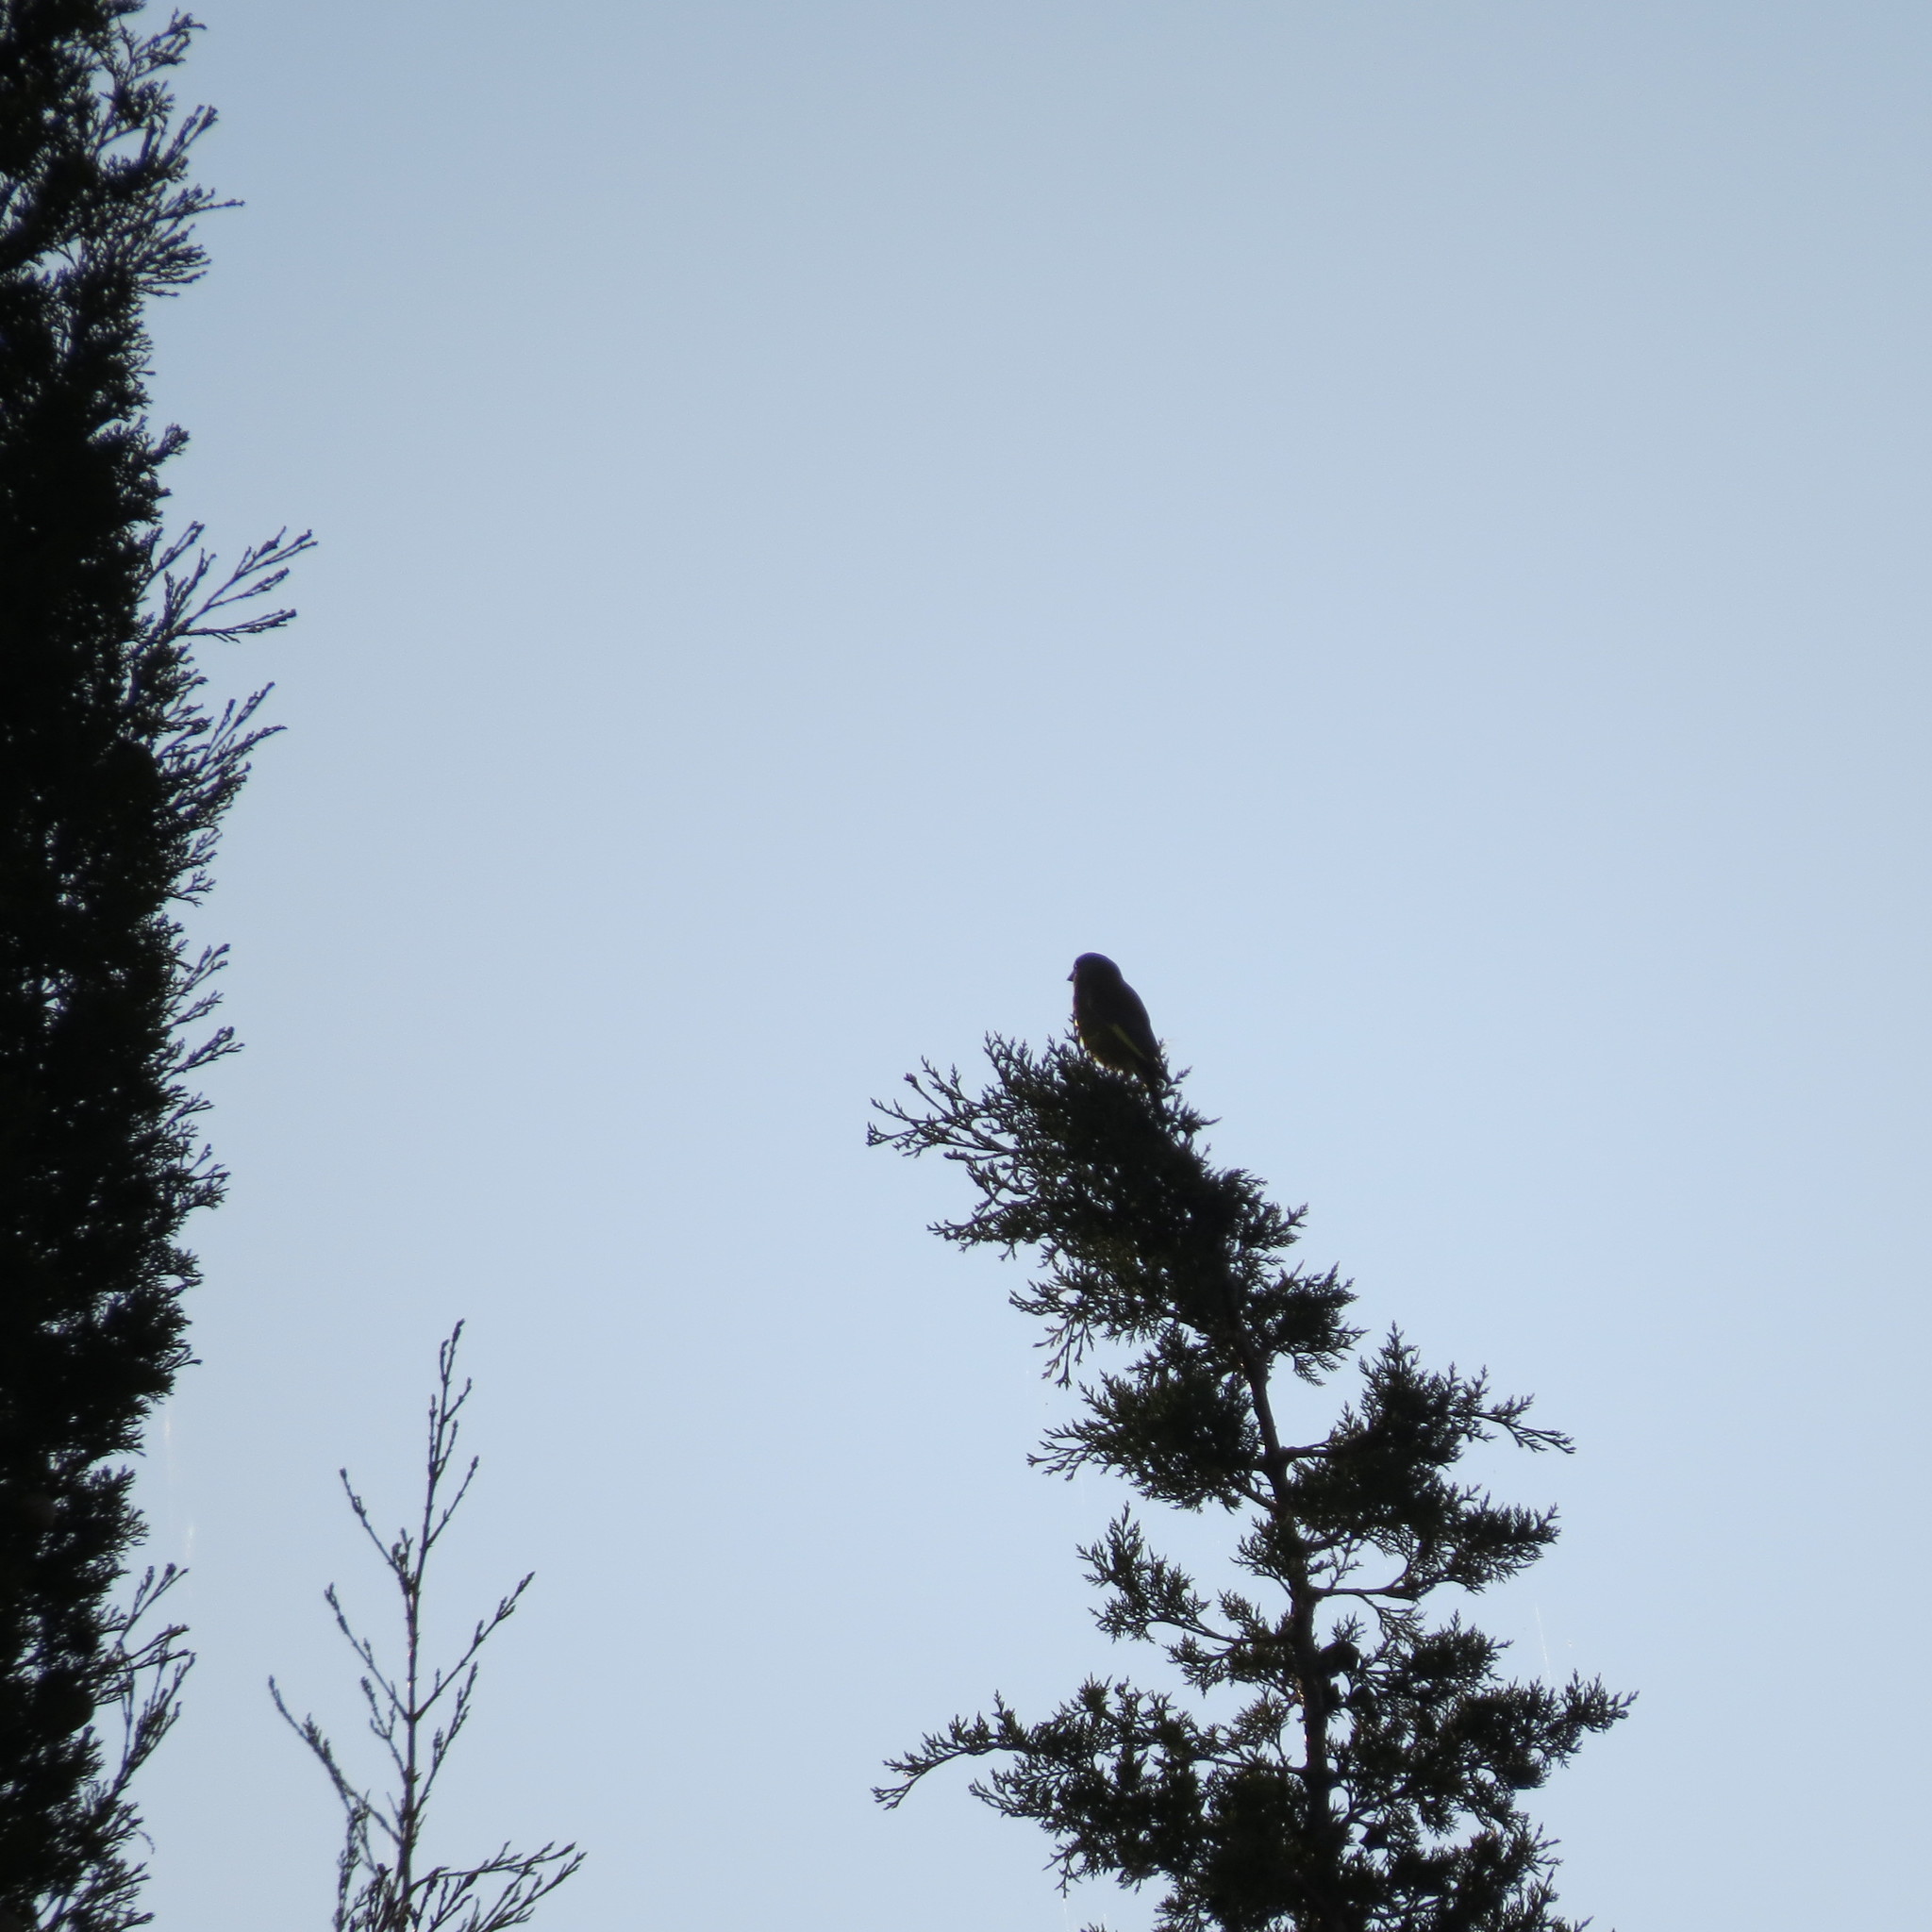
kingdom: Plantae
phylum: Tracheophyta
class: Liliopsida
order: Poales
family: Poaceae
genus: Chloris
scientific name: Chloris chloris
